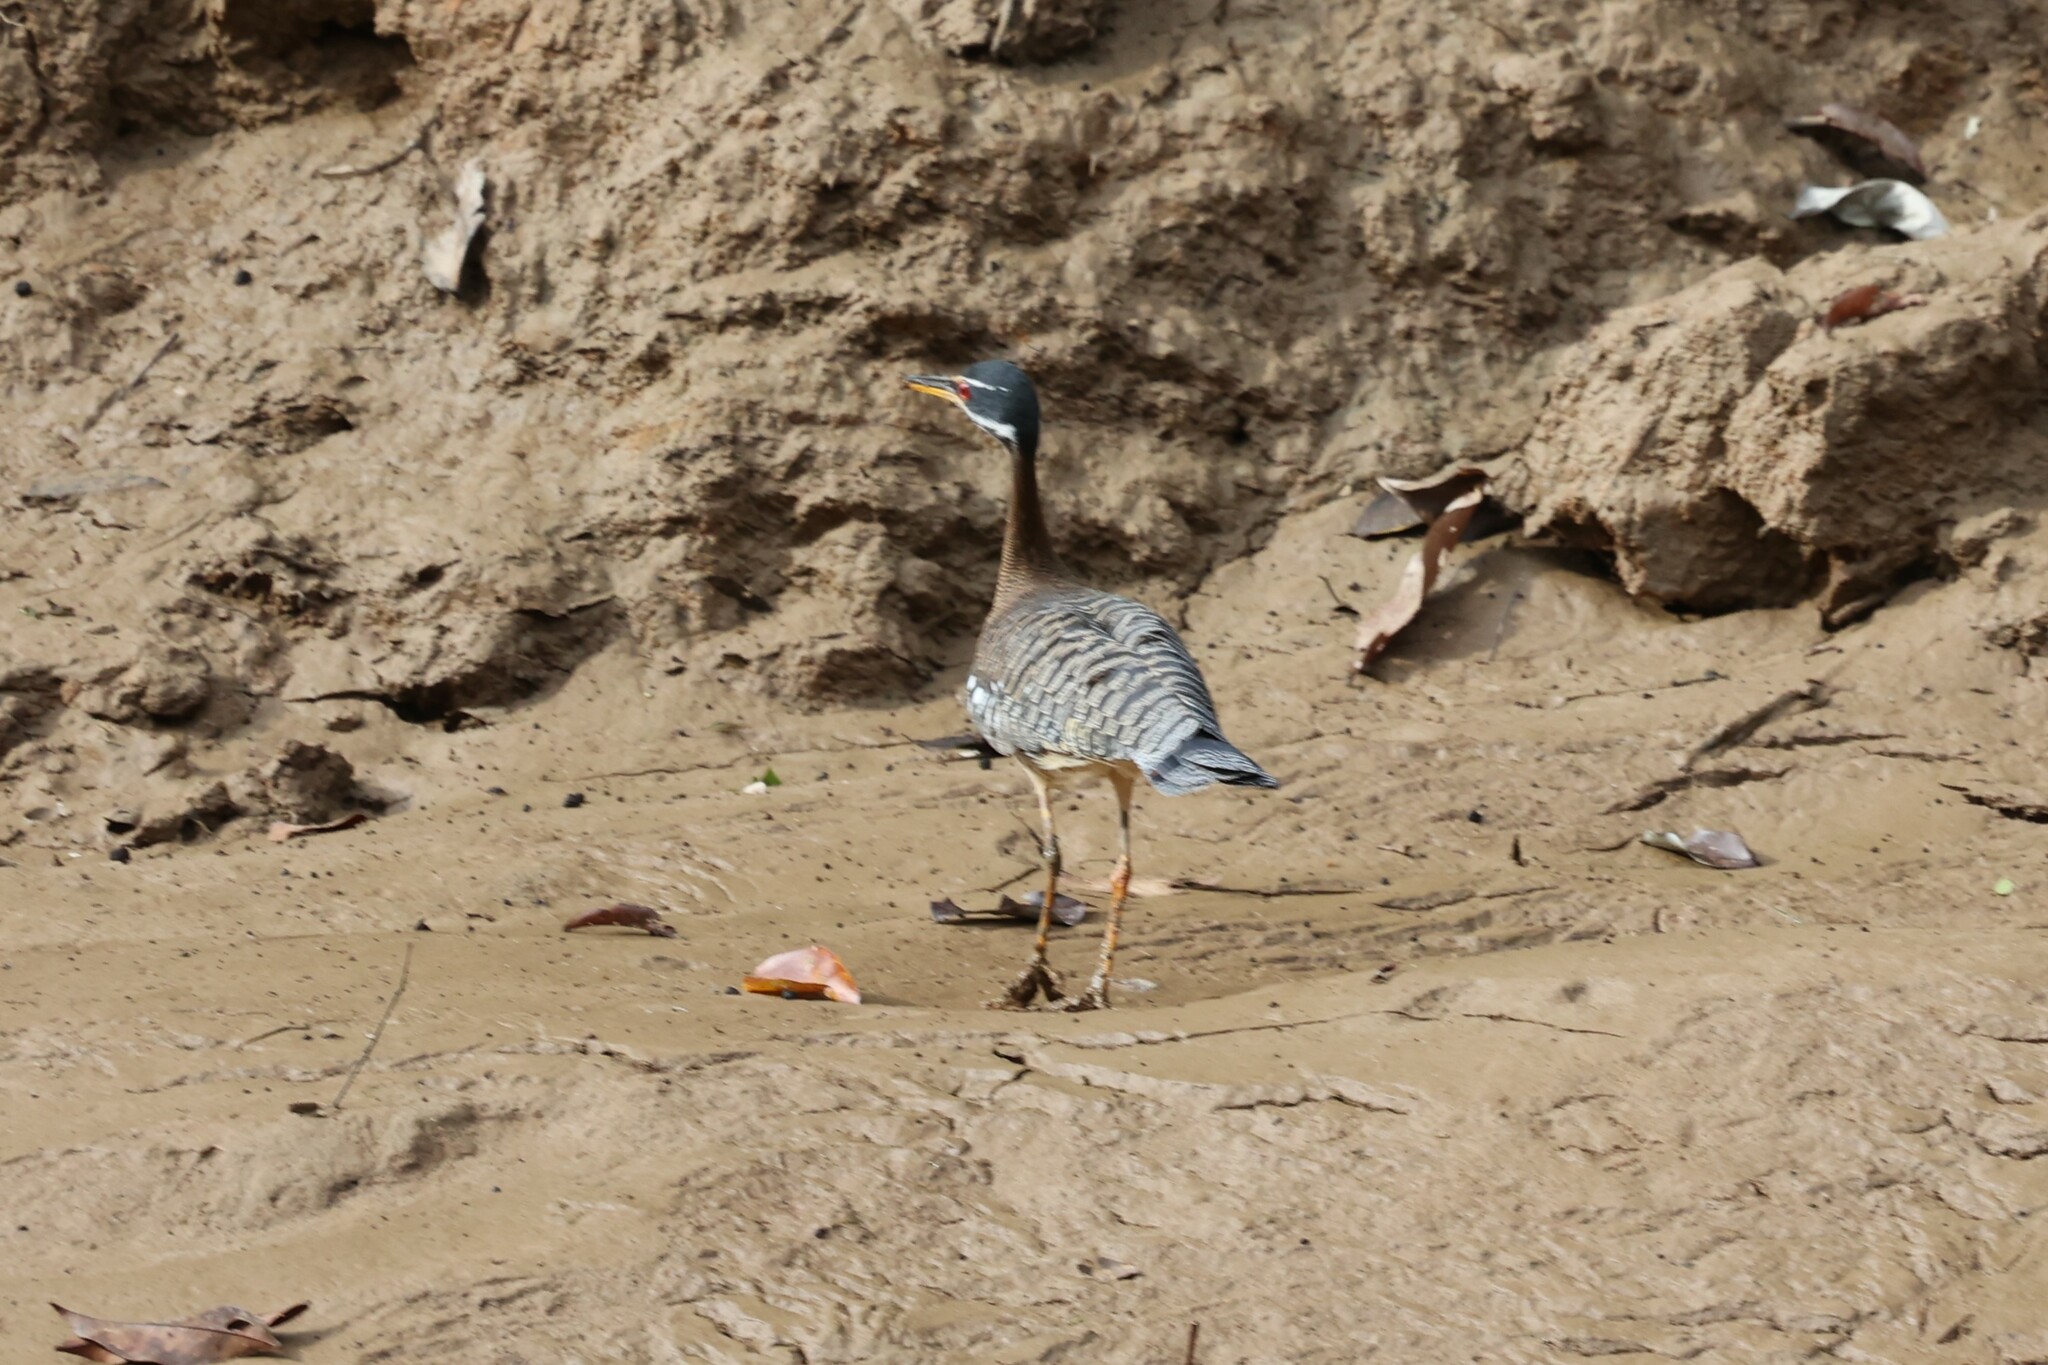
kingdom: Animalia
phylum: Chordata
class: Aves
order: Eurypygiformes
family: Eurypygidae
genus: Eurypyga
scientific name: Eurypyga helias
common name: Sunbittern
